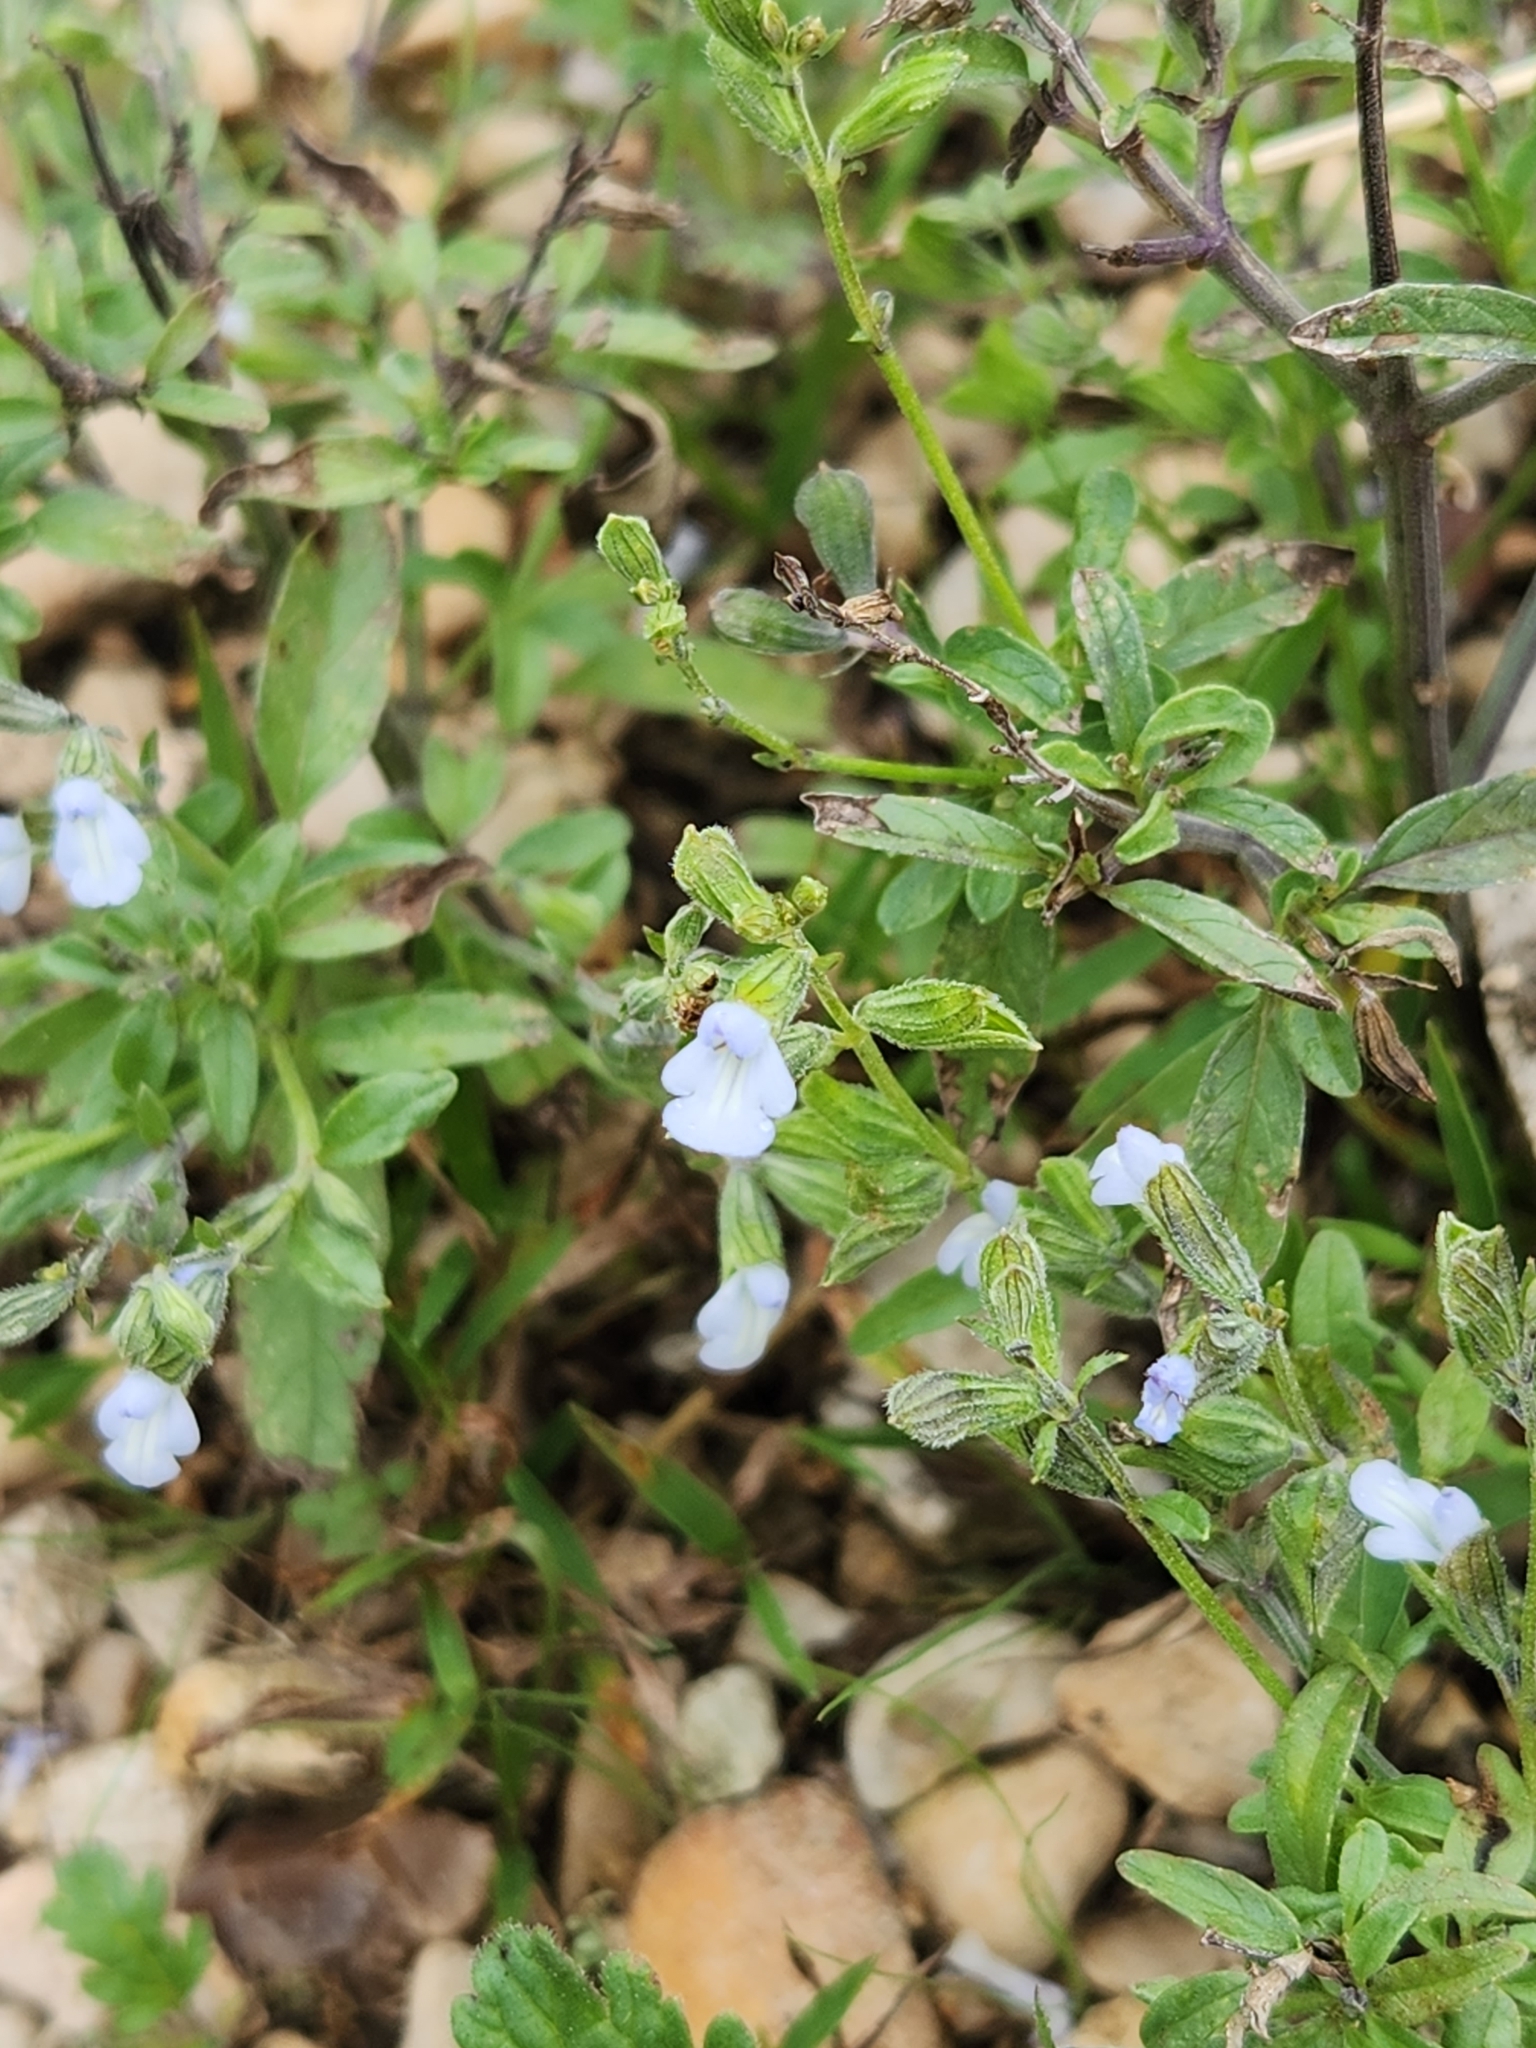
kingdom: Plantae
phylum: Tracheophyta
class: Magnoliopsida
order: Lamiales
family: Lamiaceae
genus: Salvia
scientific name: Salvia reflexa
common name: Mintweed
